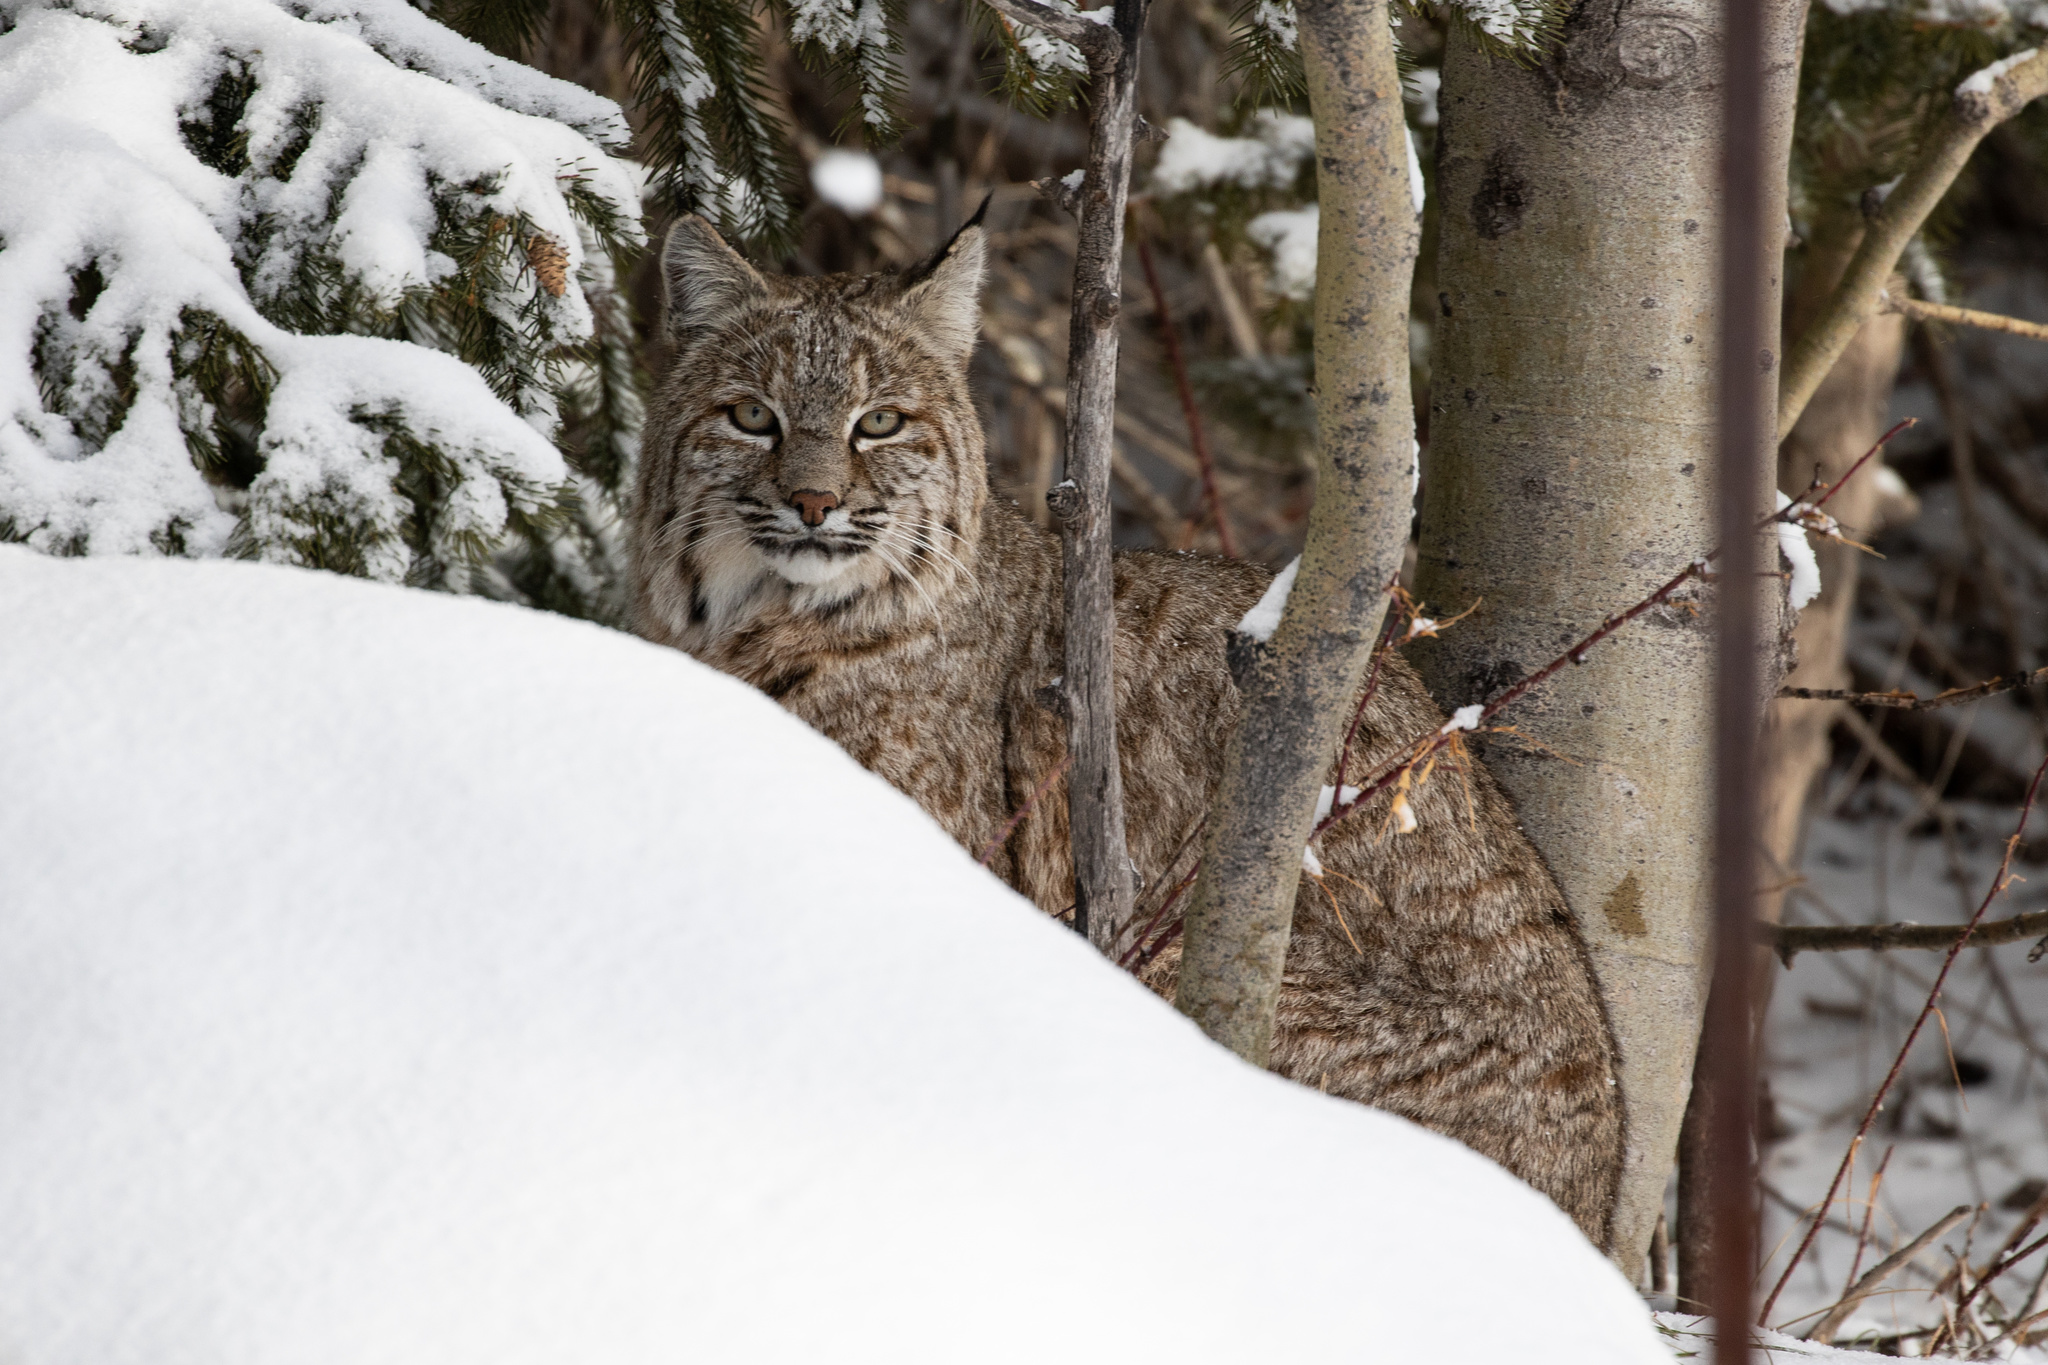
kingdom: Animalia
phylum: Chordata
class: Mammalia
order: Carnivora
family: Felidae
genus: Lynx
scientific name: Lynx rufus
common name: Bobcat
